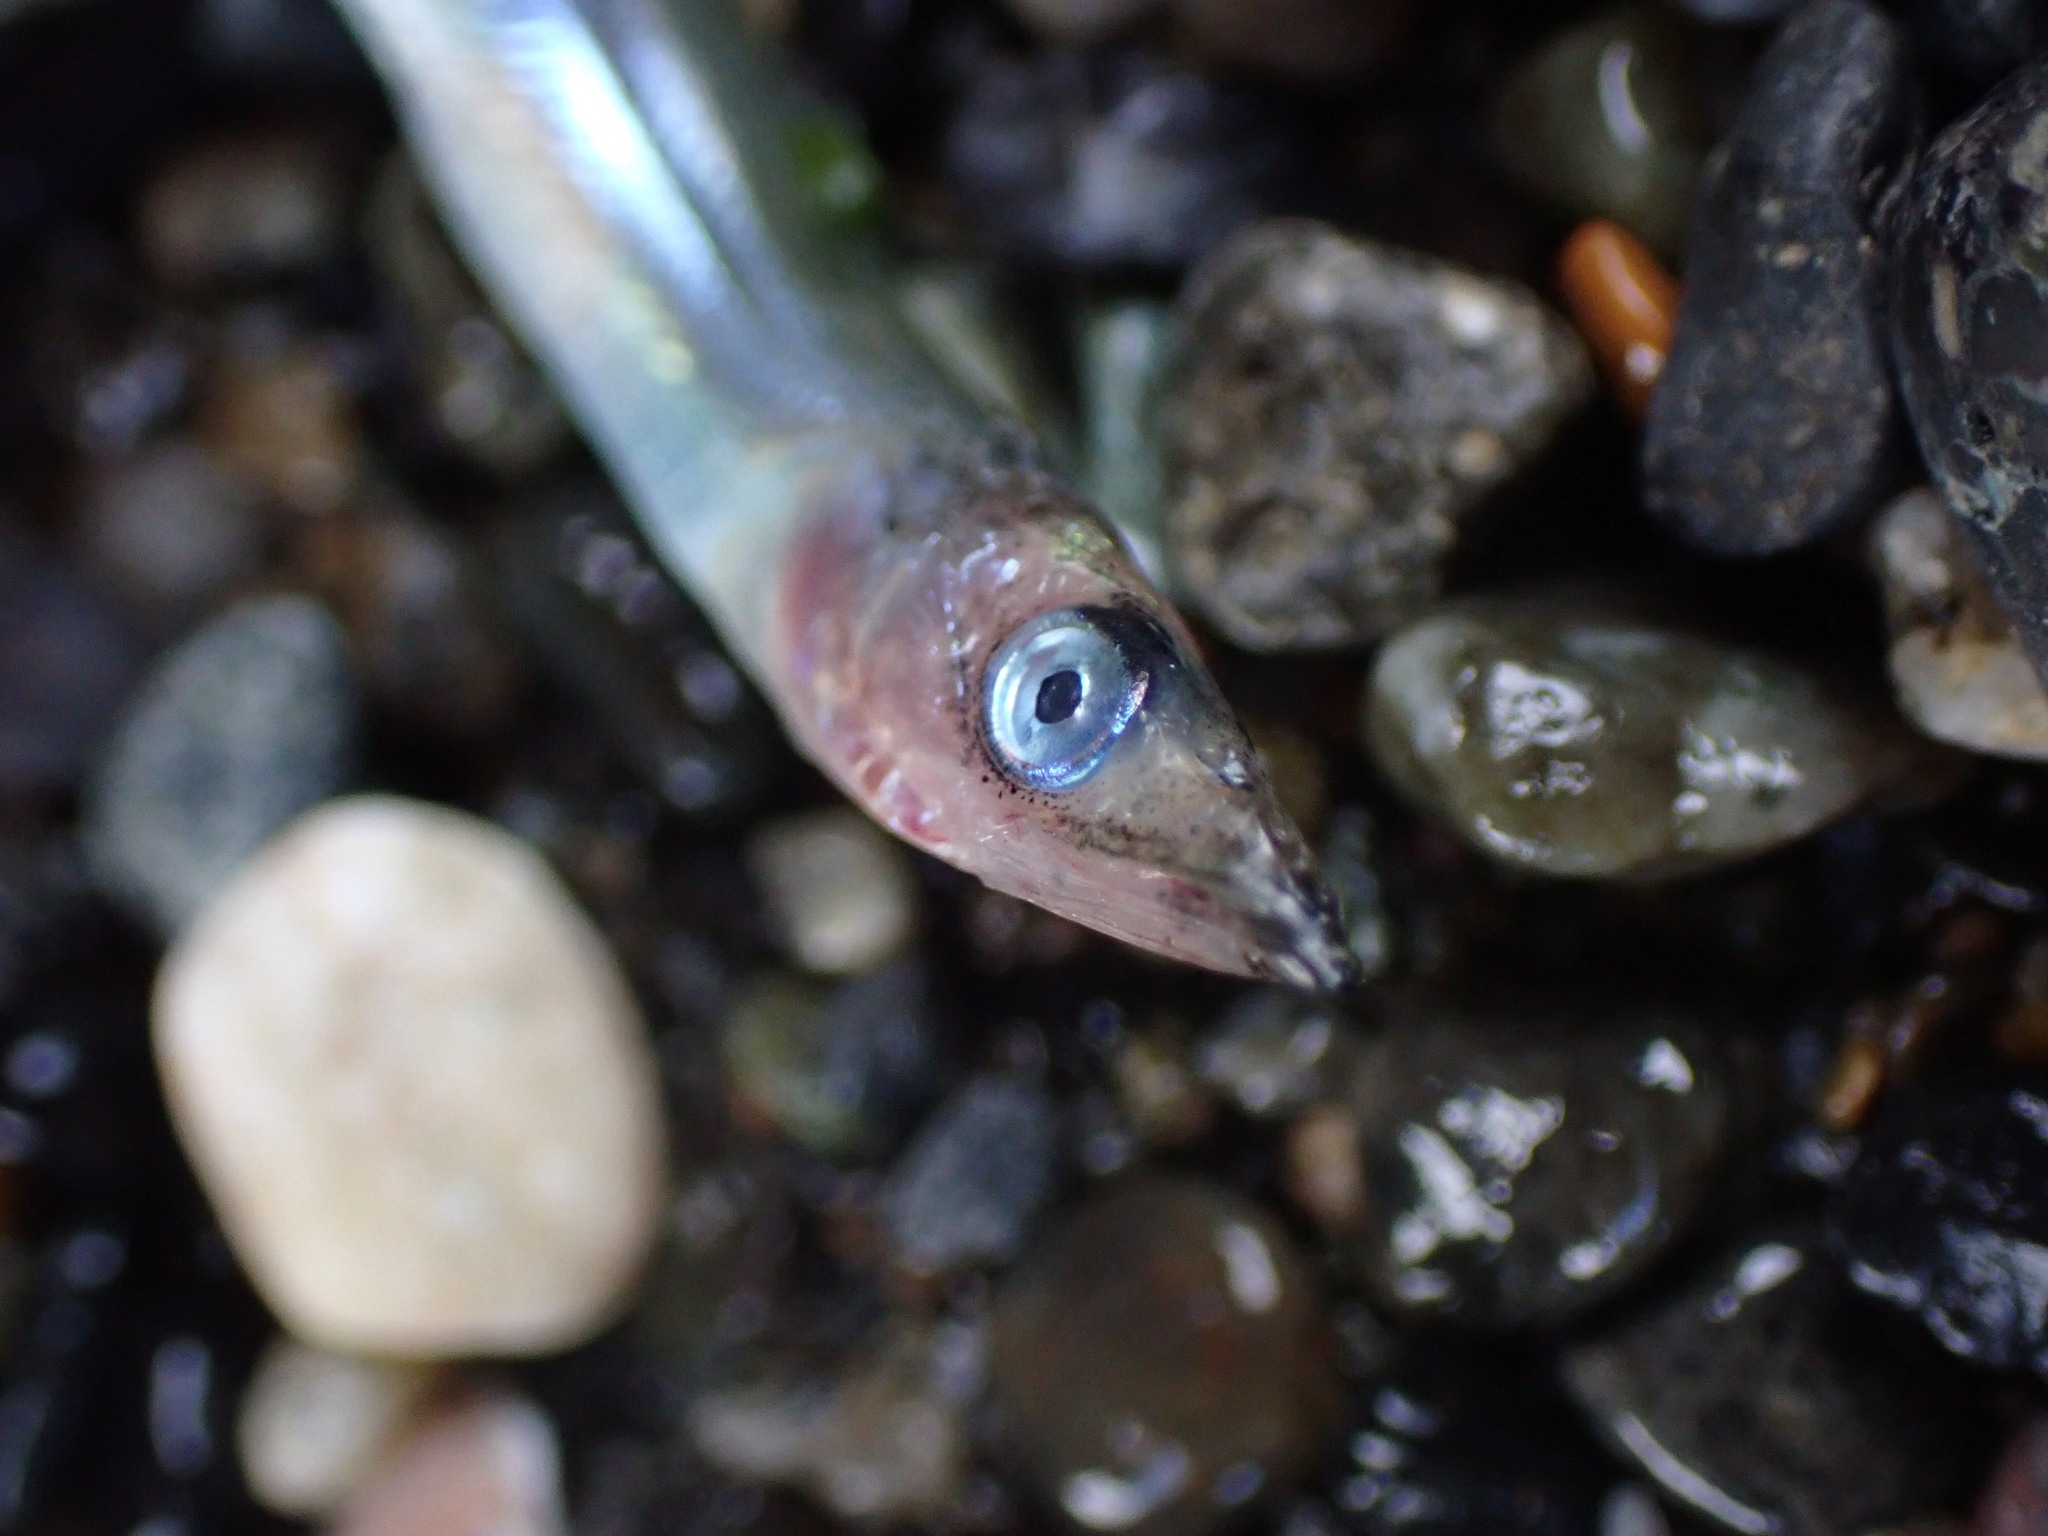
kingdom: Animalia
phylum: Chordata
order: Perciformes
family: Ammodytidae
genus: Ammodytes
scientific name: Ammodytes personatus
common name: Japanese sand lance
